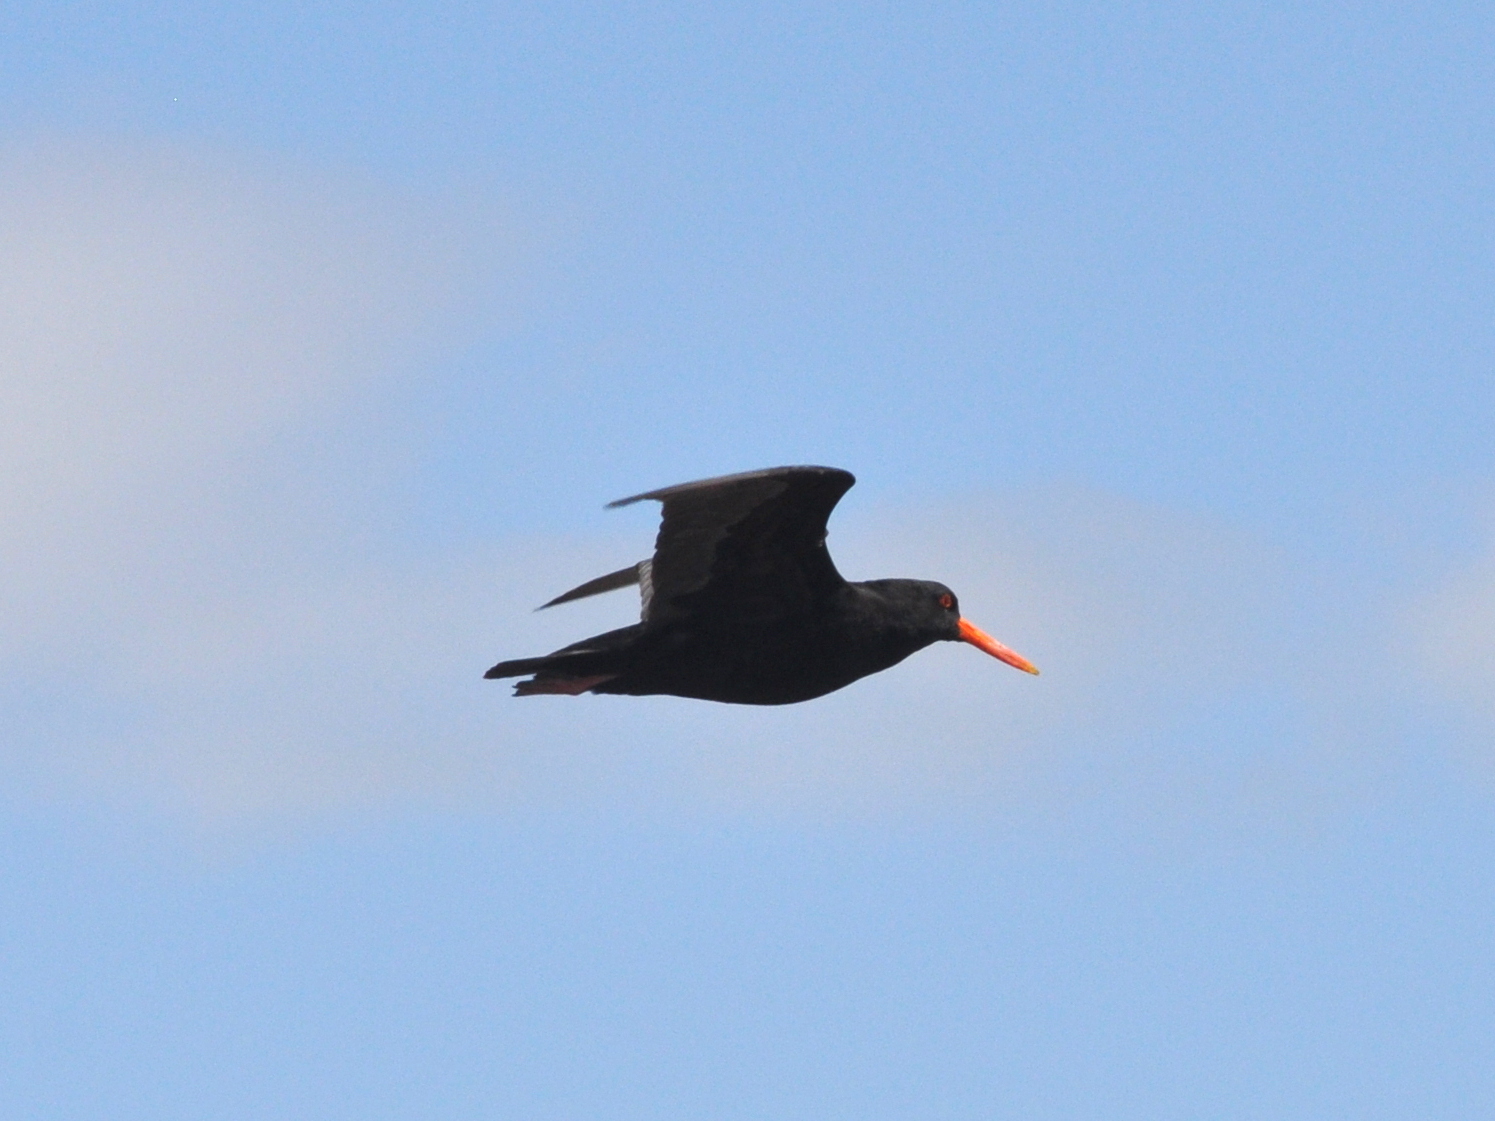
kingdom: Animalia
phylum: Chordata
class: Aves
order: Charadriiformes
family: Haematopodidae
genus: Haematopus
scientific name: Haematopus unicolor
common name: Variable oystercatcher
